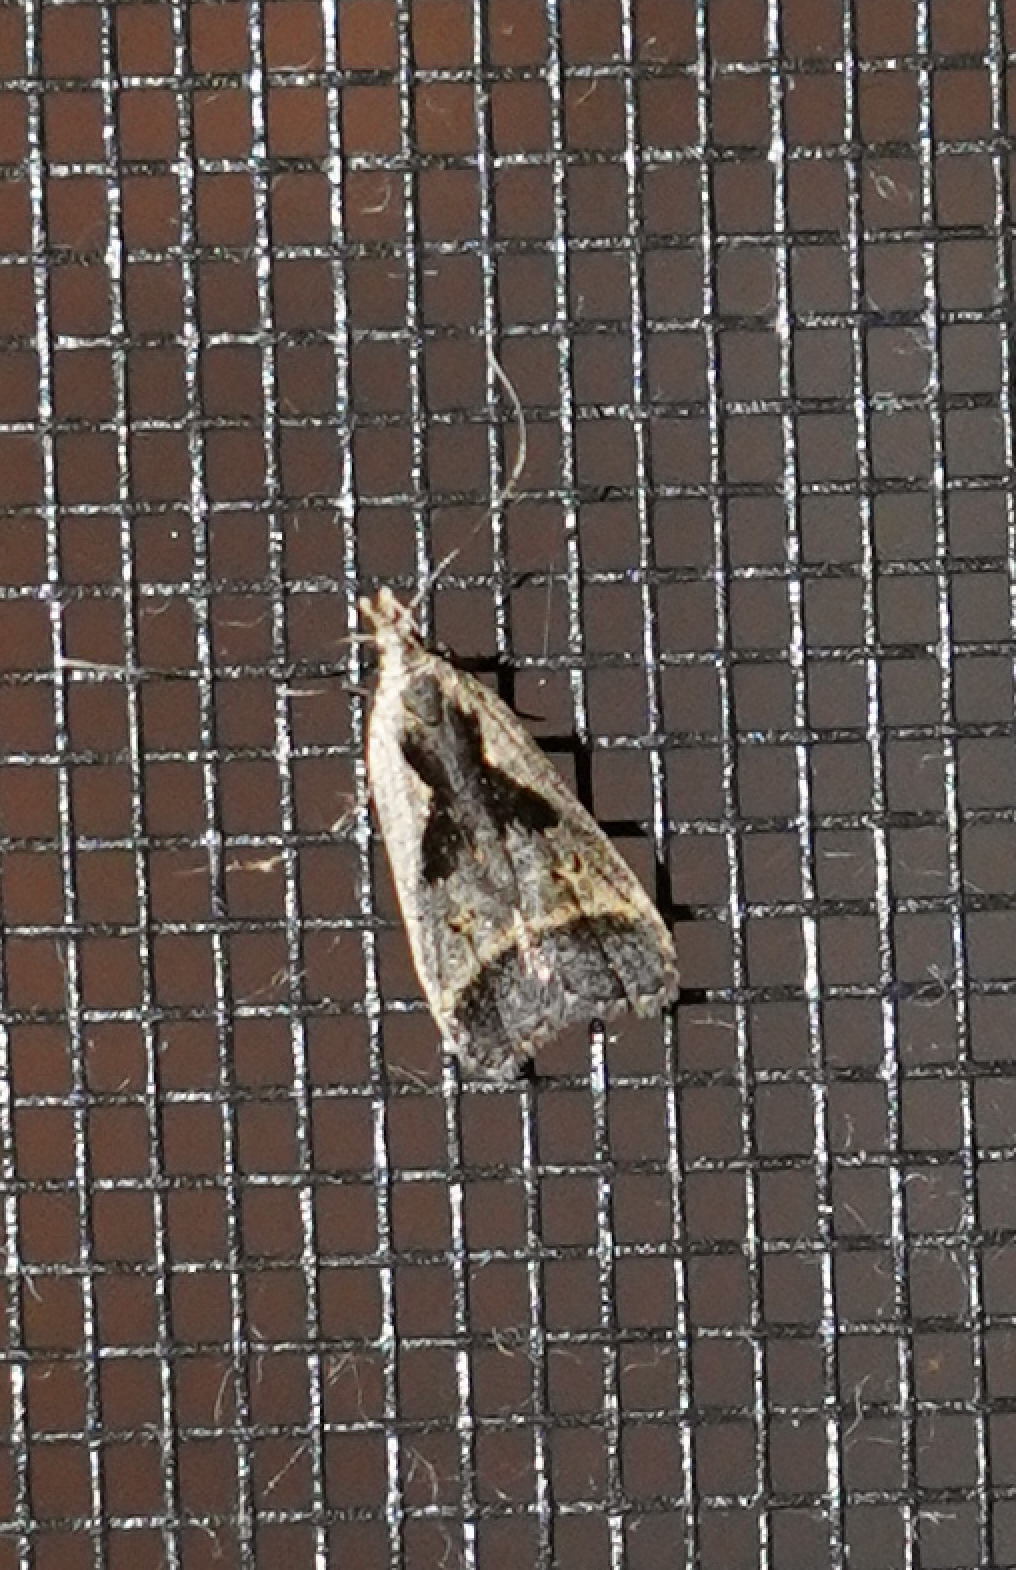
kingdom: Animalia
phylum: Arthropoda
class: Insecta
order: Lepidoptera
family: Gelechiidae
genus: Dichomeris
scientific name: Dichomeris bilobella
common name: Bilobed dichomeris moth
